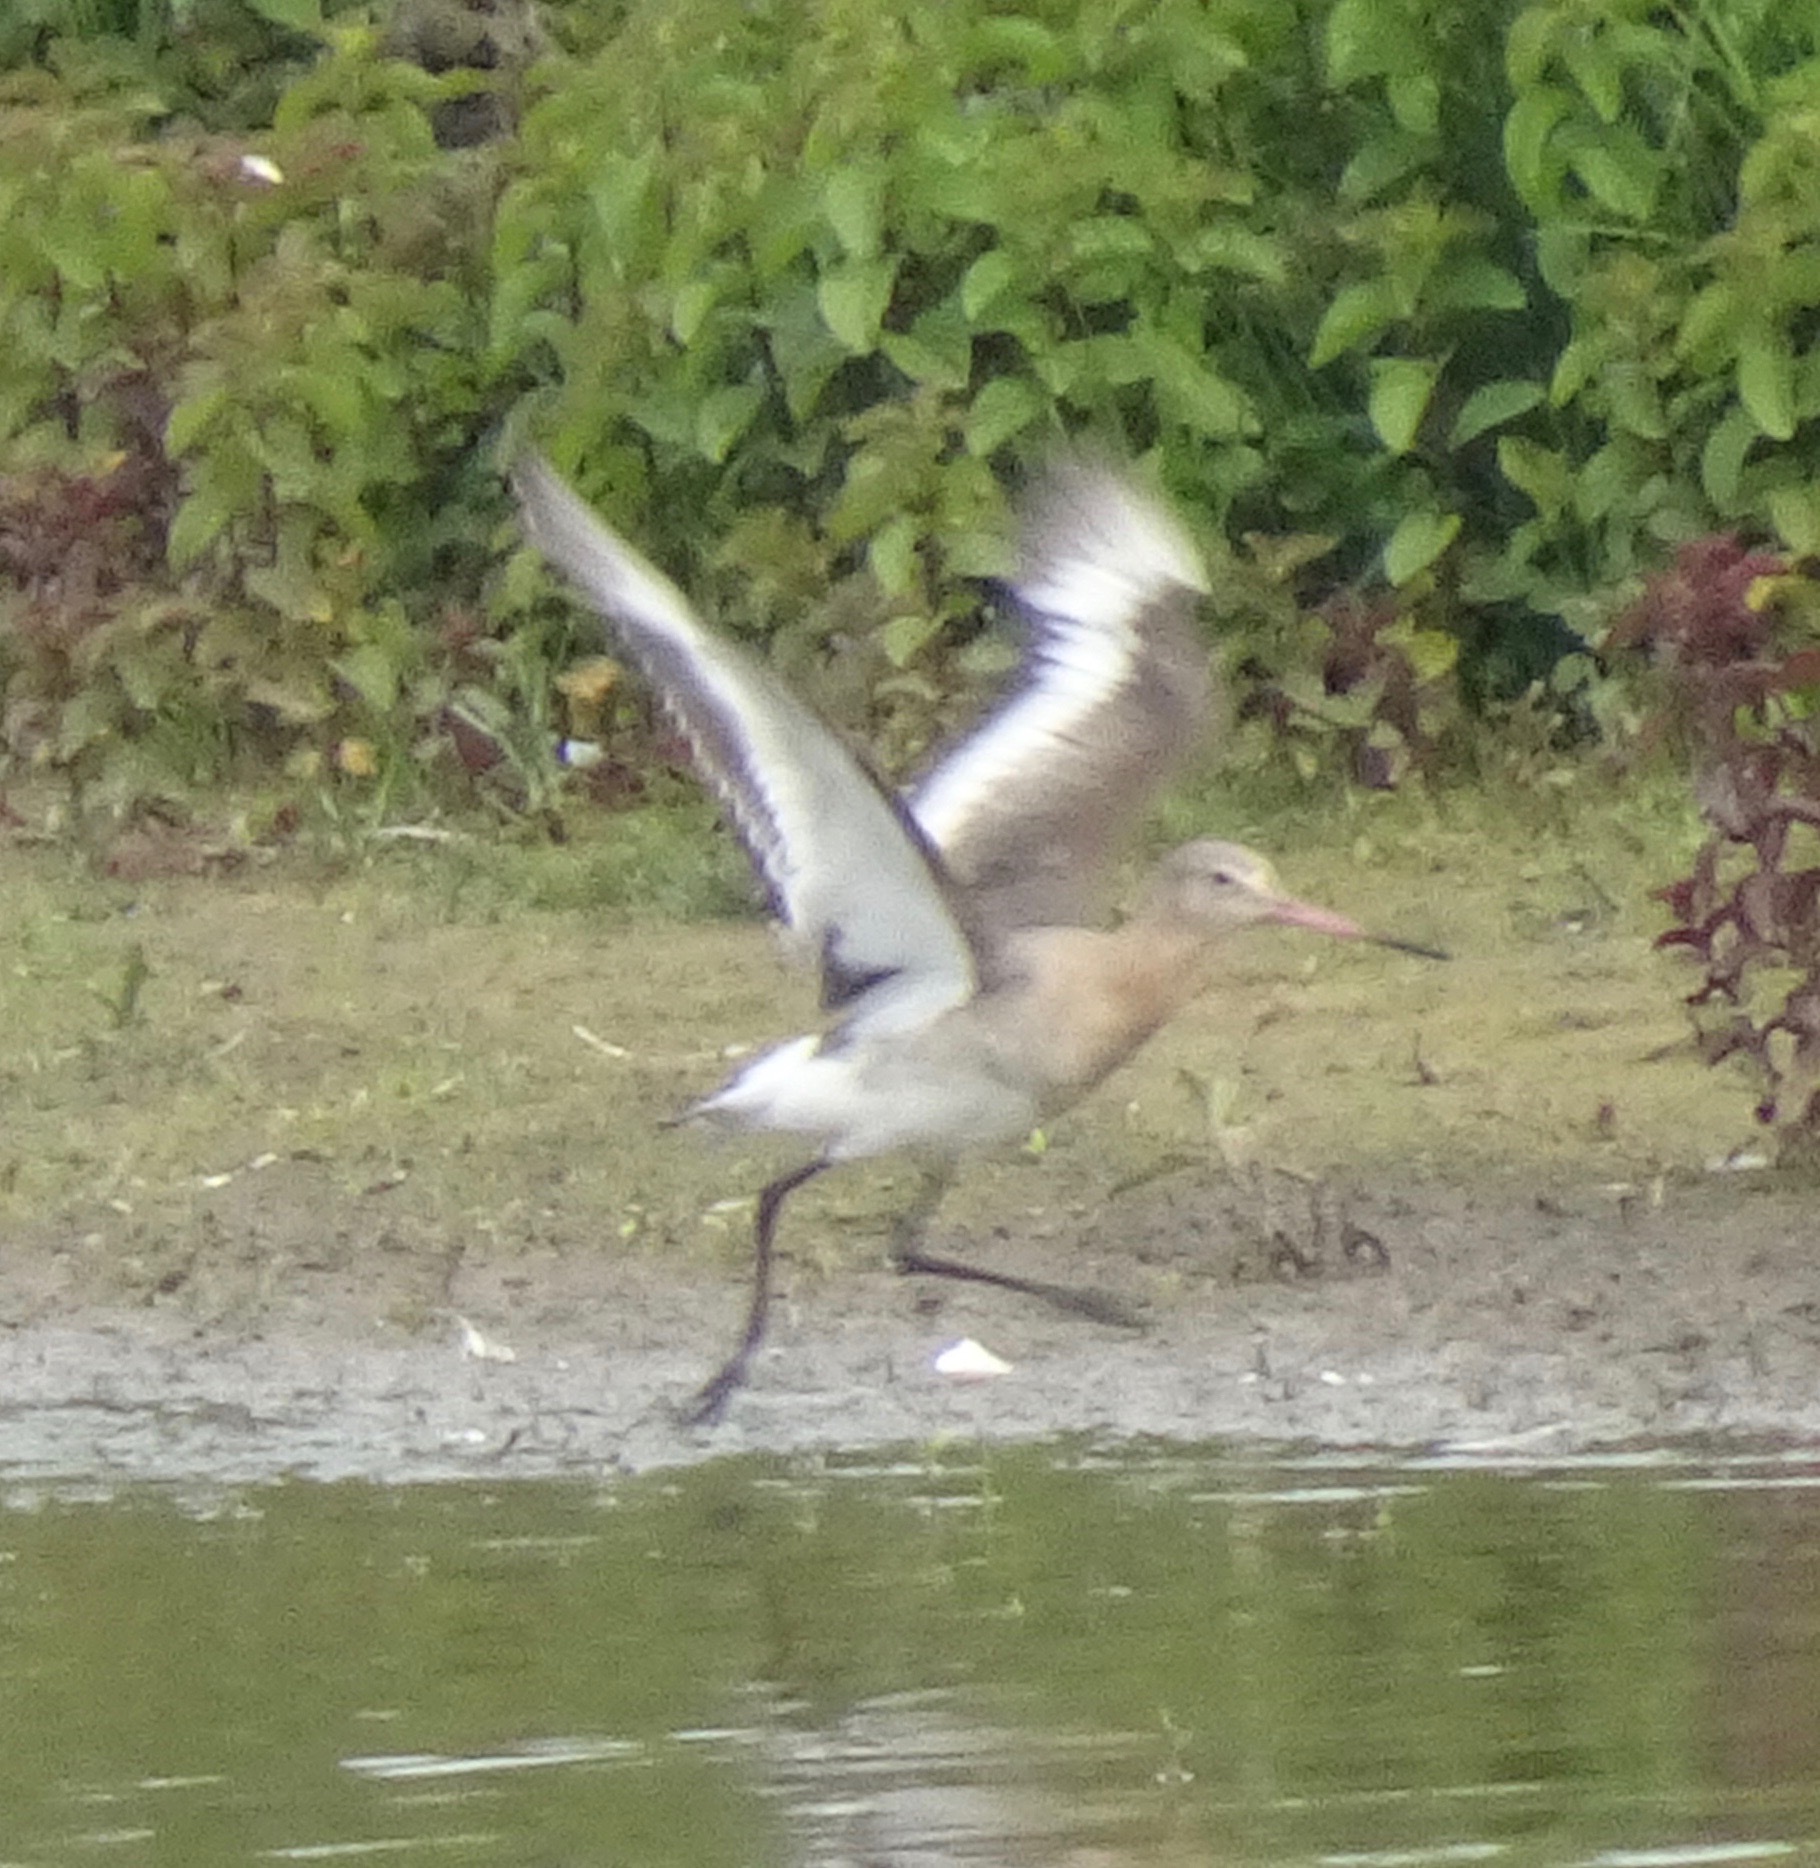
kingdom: Animalia
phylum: Chordata
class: Aves
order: Charadriiformes
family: Scolopacidae
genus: Limosa
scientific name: Limosa limosa
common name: Black-tailed godwit
